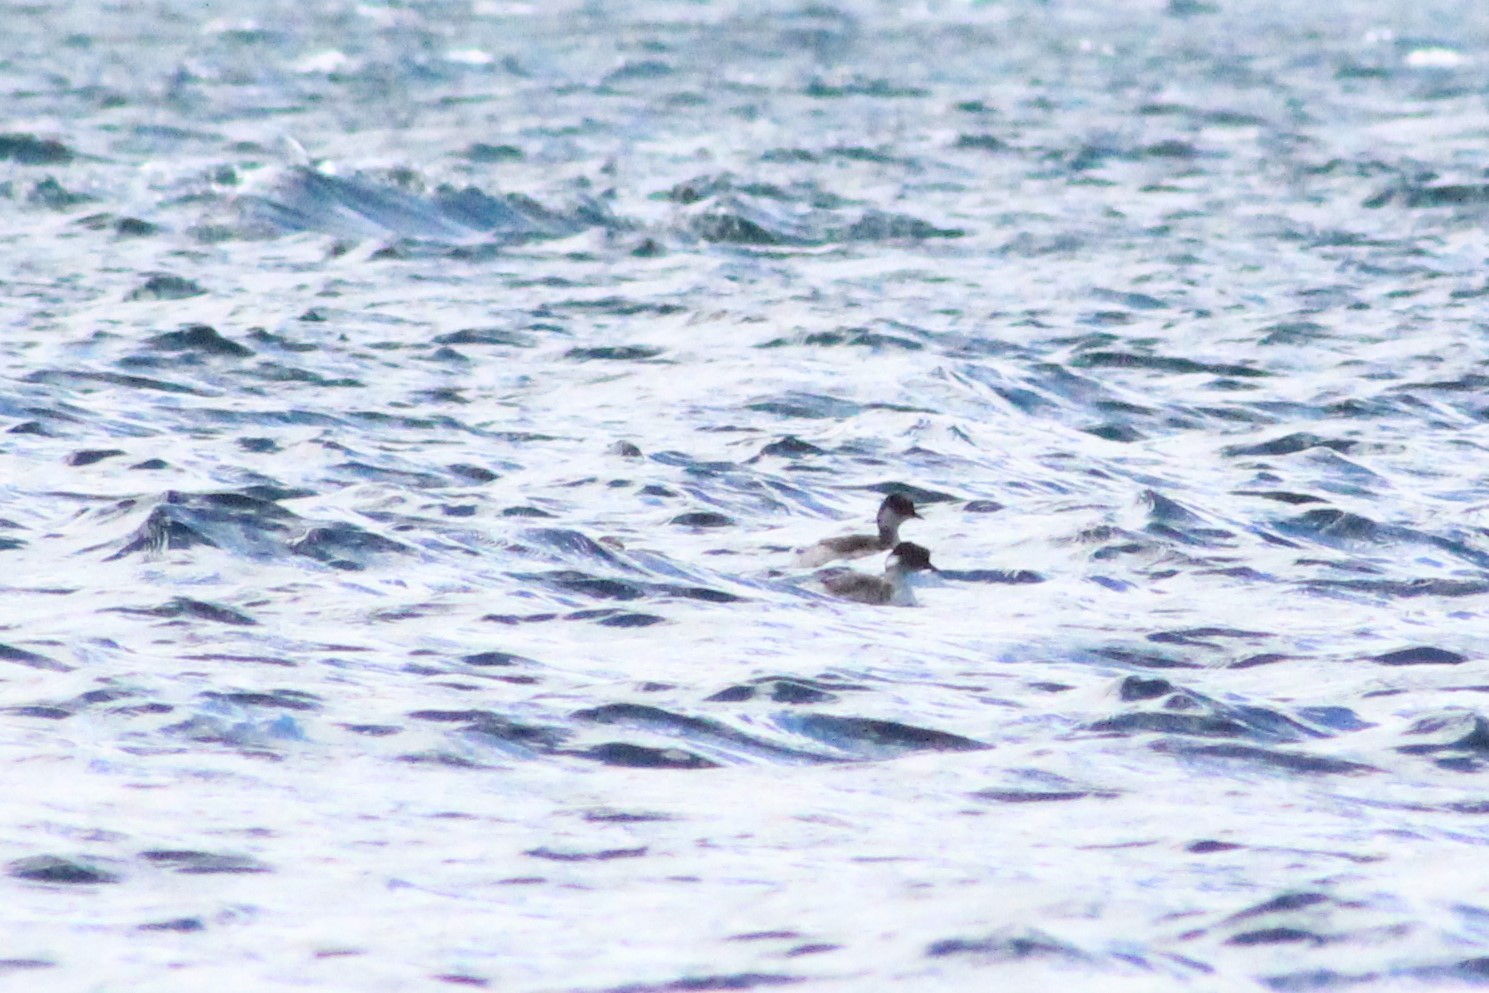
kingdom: Animalia
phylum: Chordata
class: Aves
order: Podicipediformes
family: Podicipedidae
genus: Podiceps
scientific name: Podiceps occipitalis
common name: Silvery grebe
